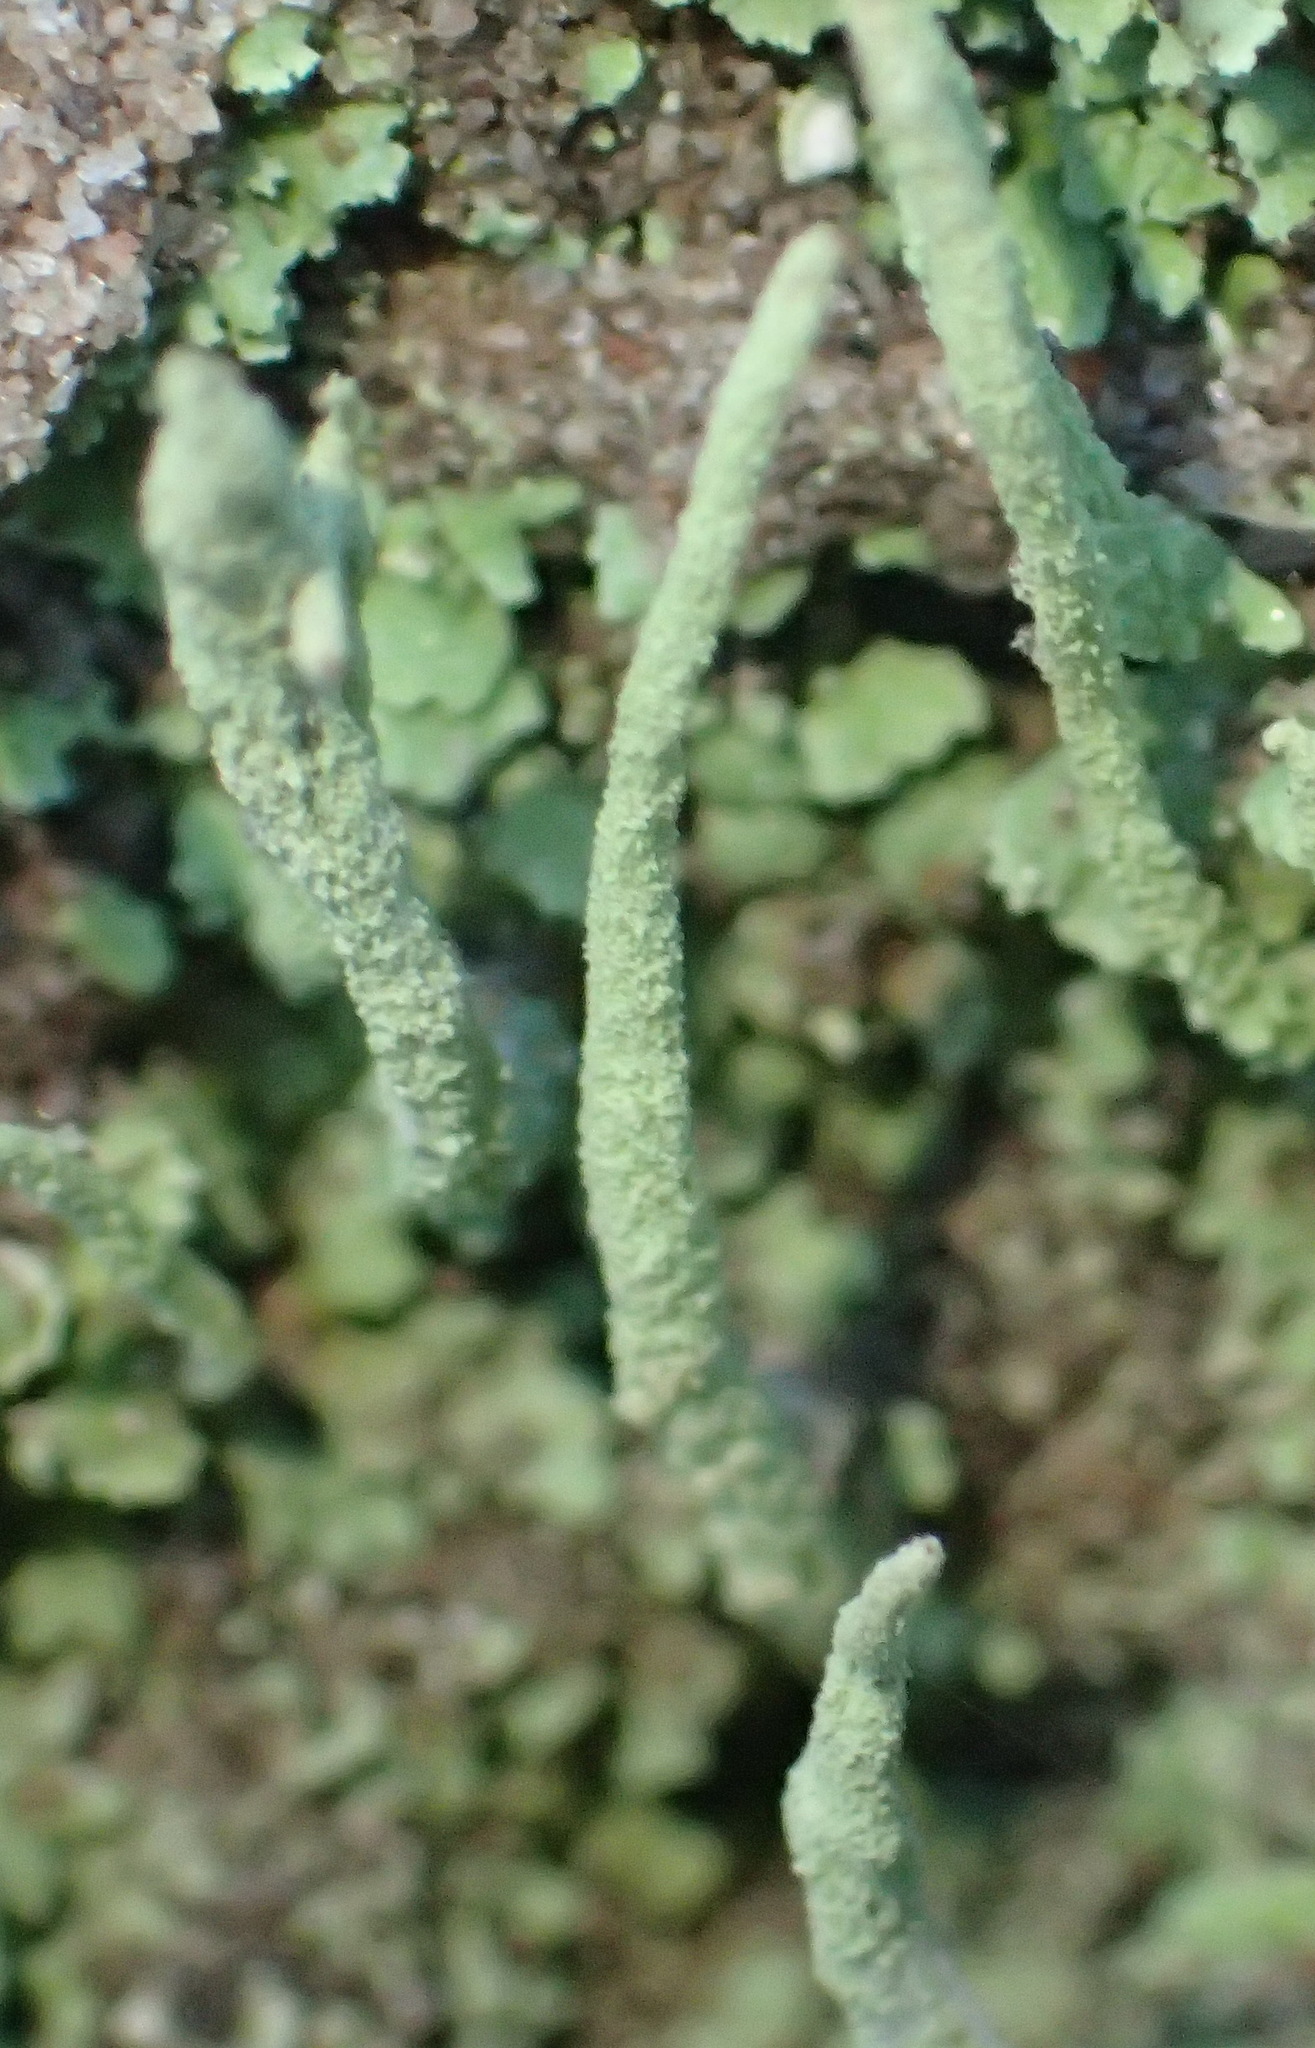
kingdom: Fungi
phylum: Ascomycota
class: Lecanoromycetes
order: Lecanorales
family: Cladoniaceae
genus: Cladonia
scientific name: Cladonia ochrochlora
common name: Smooth-footed powderhorn
